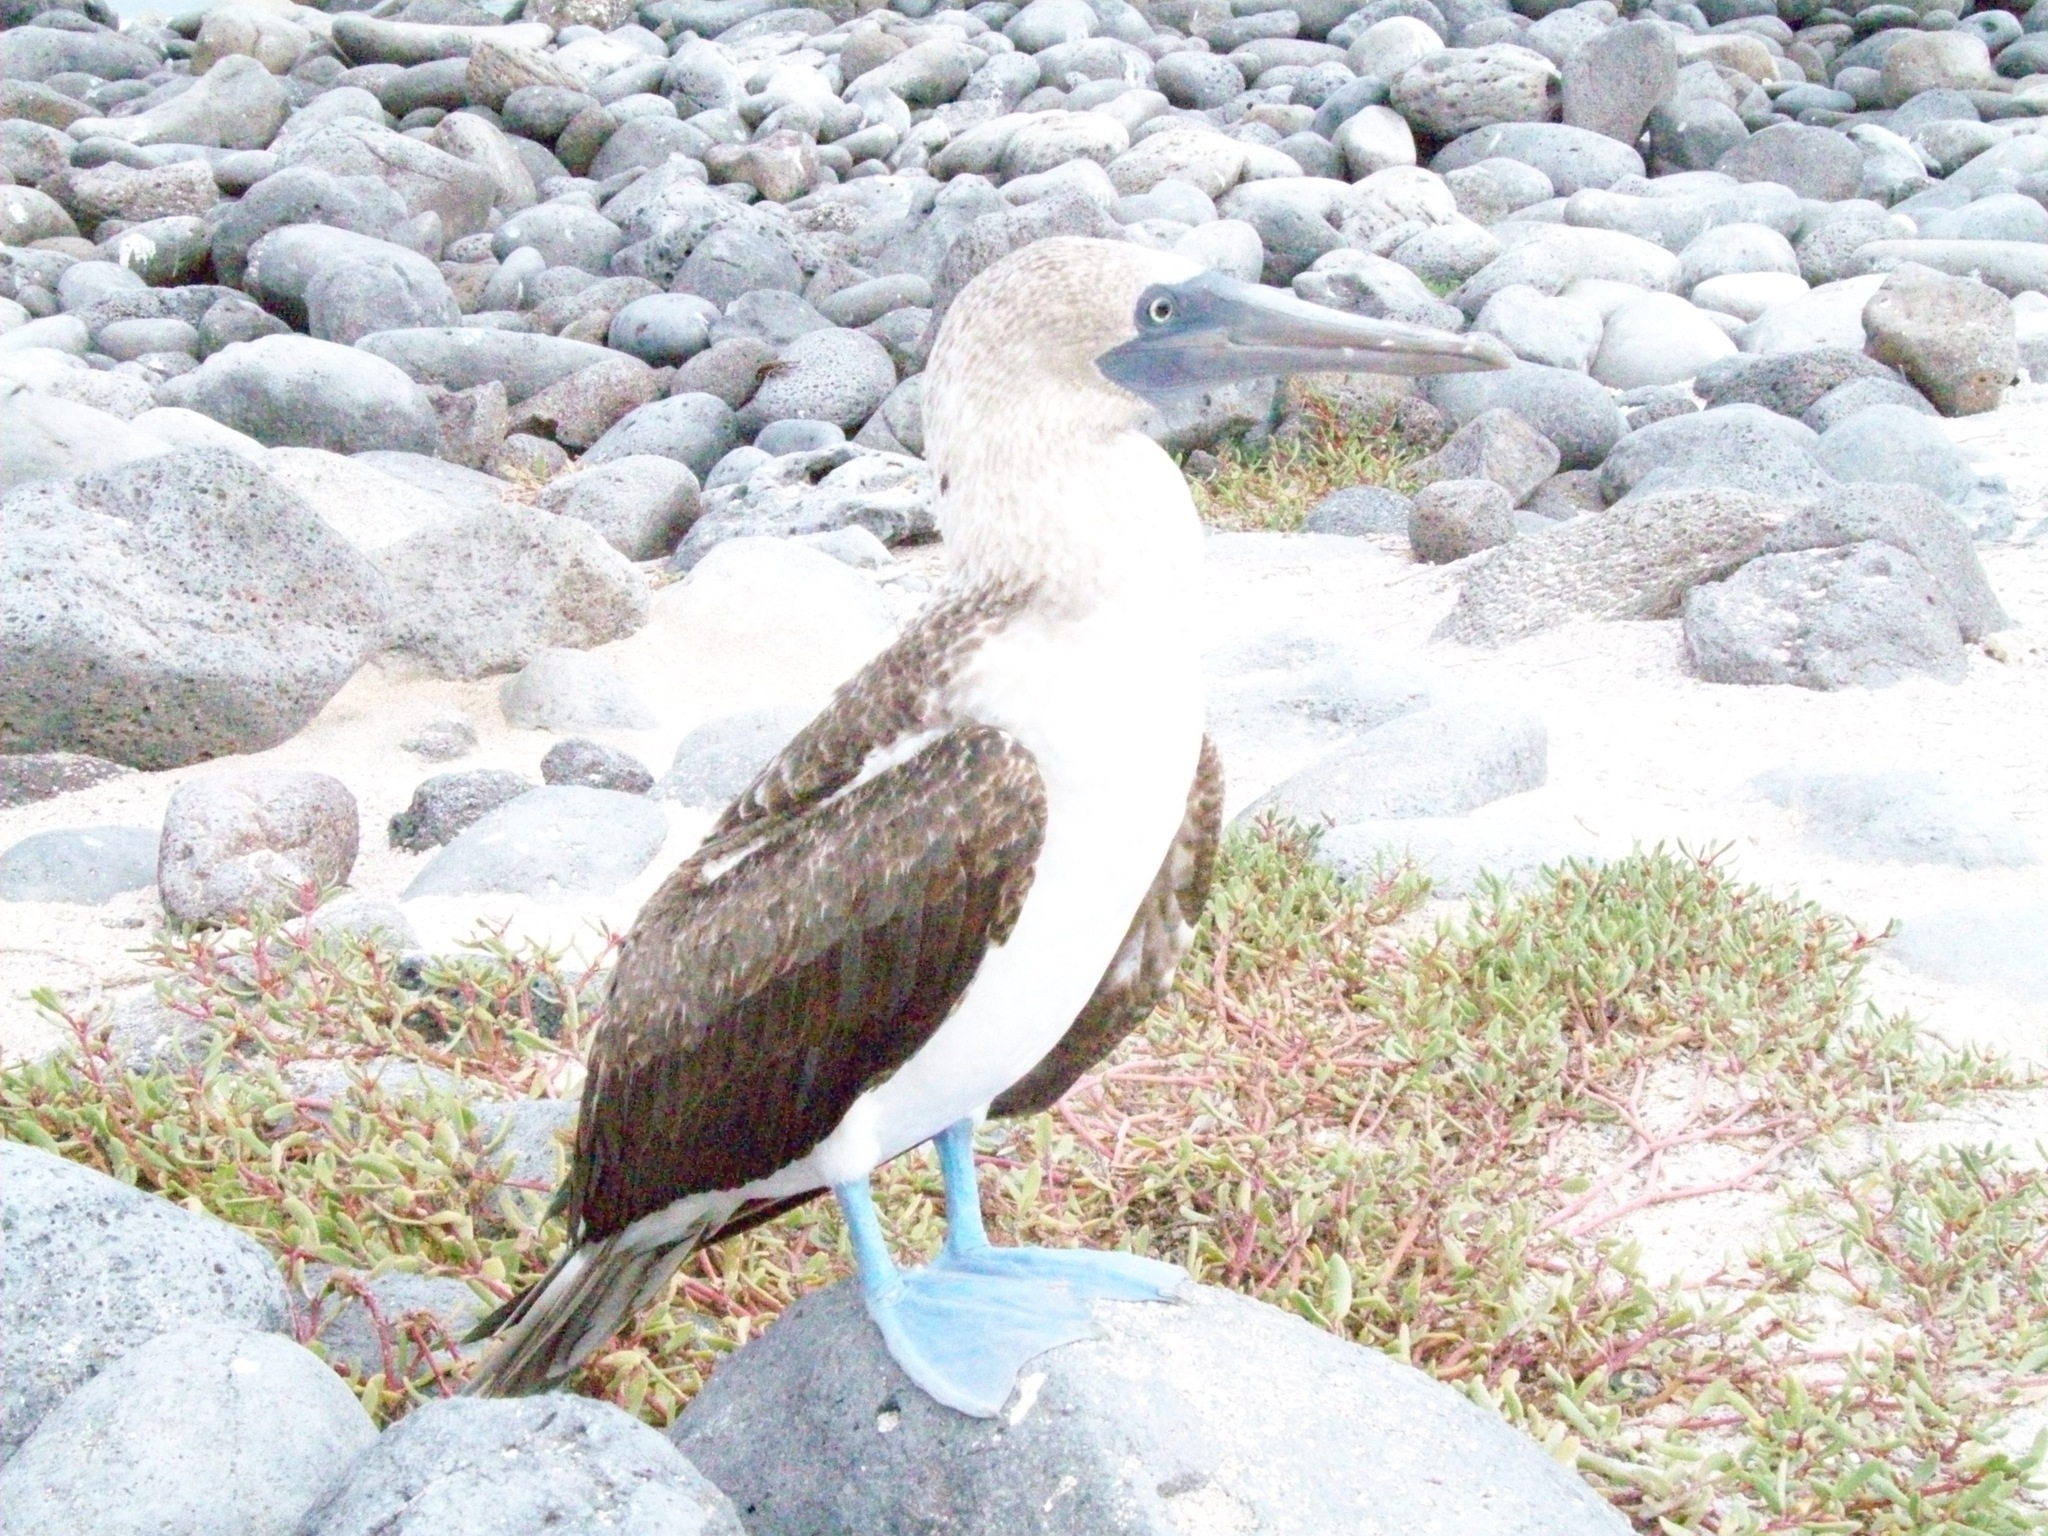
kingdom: Animalia
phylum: Chordata
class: Aves
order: Suliformes
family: Sulidae
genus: Sula
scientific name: Sula nebouxii
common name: Blue-footed booby
